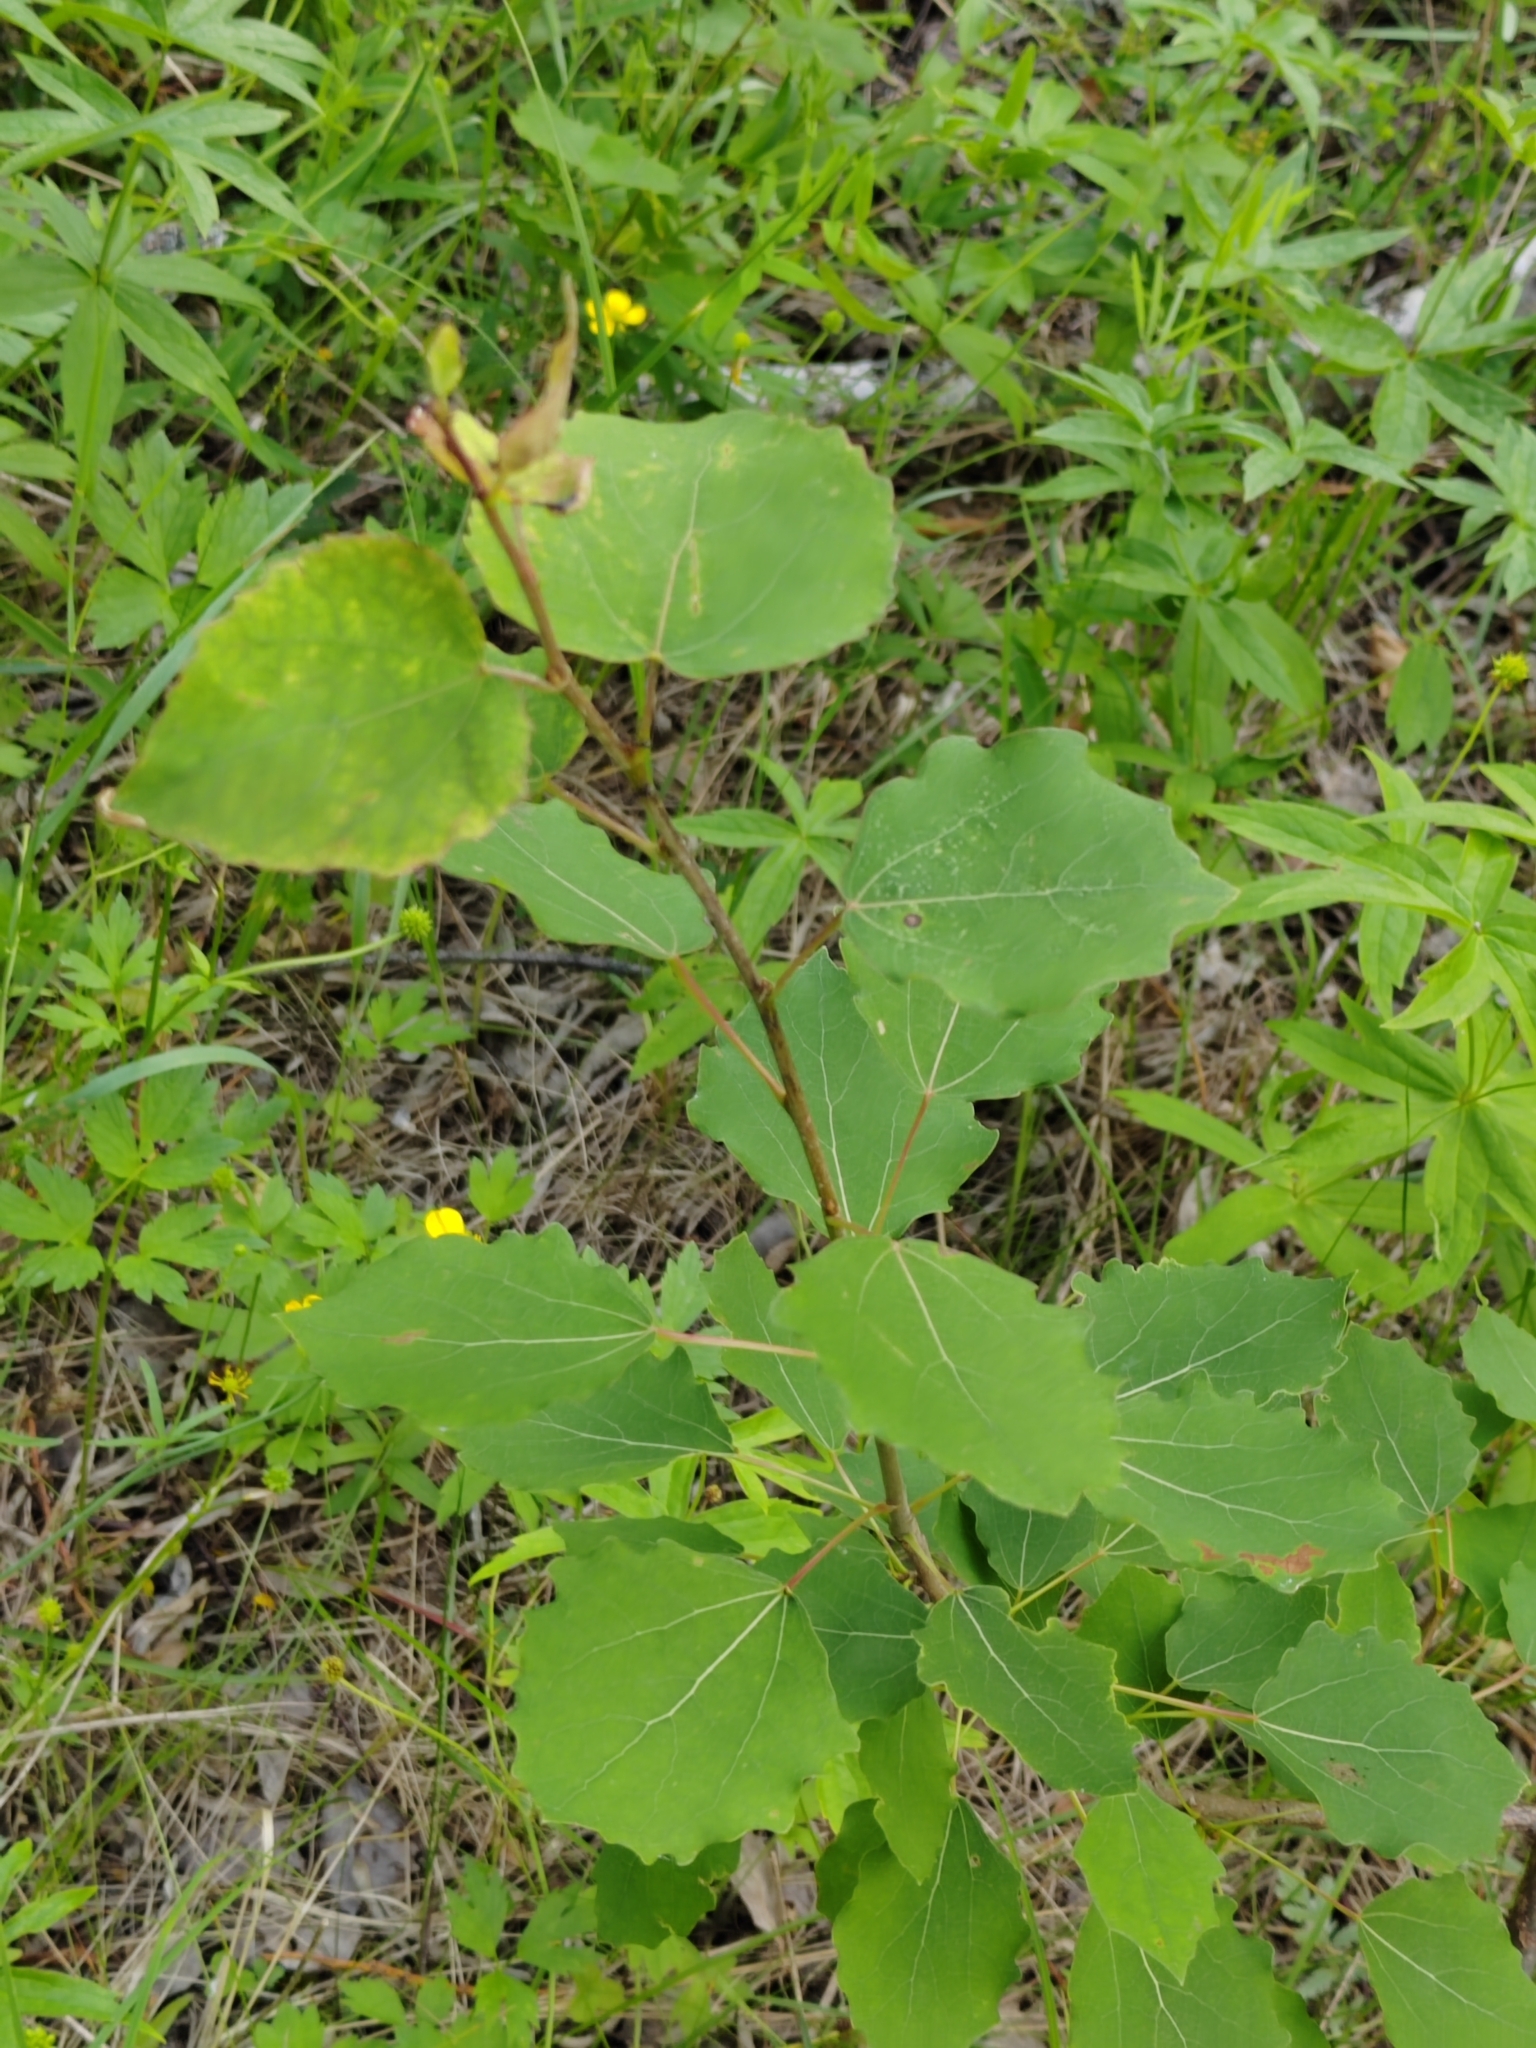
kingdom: Plantae
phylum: Tracheophyta
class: Magnoliopsida
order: Malpighiales
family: Salicaceae
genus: Populus
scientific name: Populus tremula
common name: European aspen
